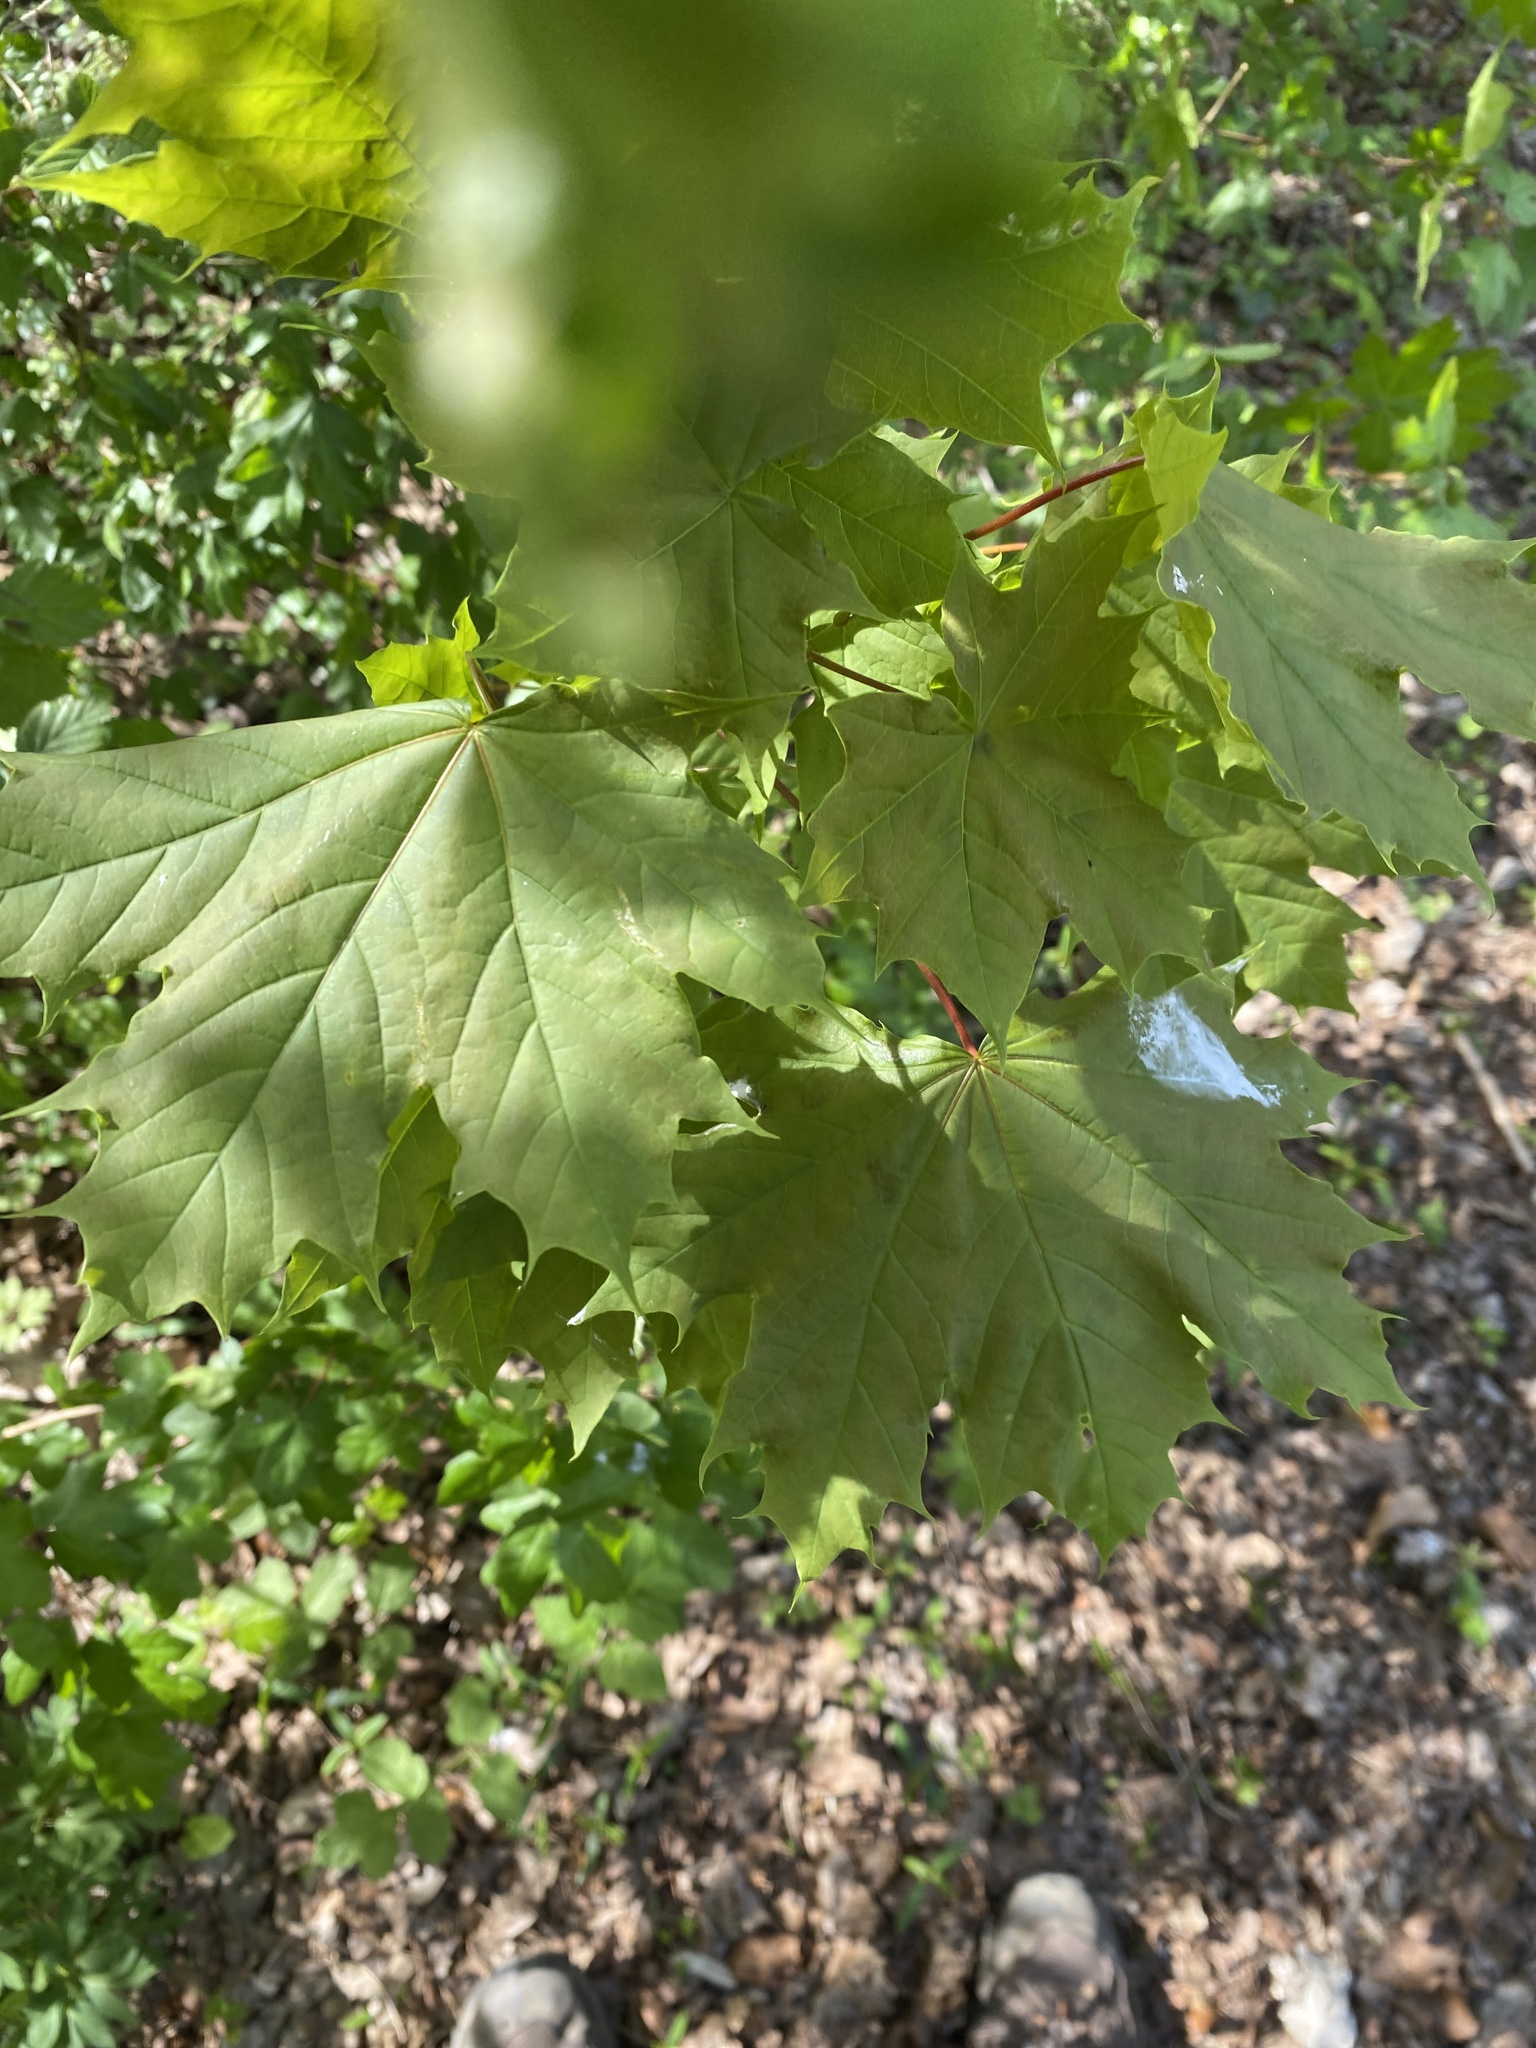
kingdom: Plantae
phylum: Tracheophyta
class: Magnoliopsida
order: Sapindales
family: Sapindaceae
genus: Acer
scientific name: Acer platanoides
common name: Norway maple
